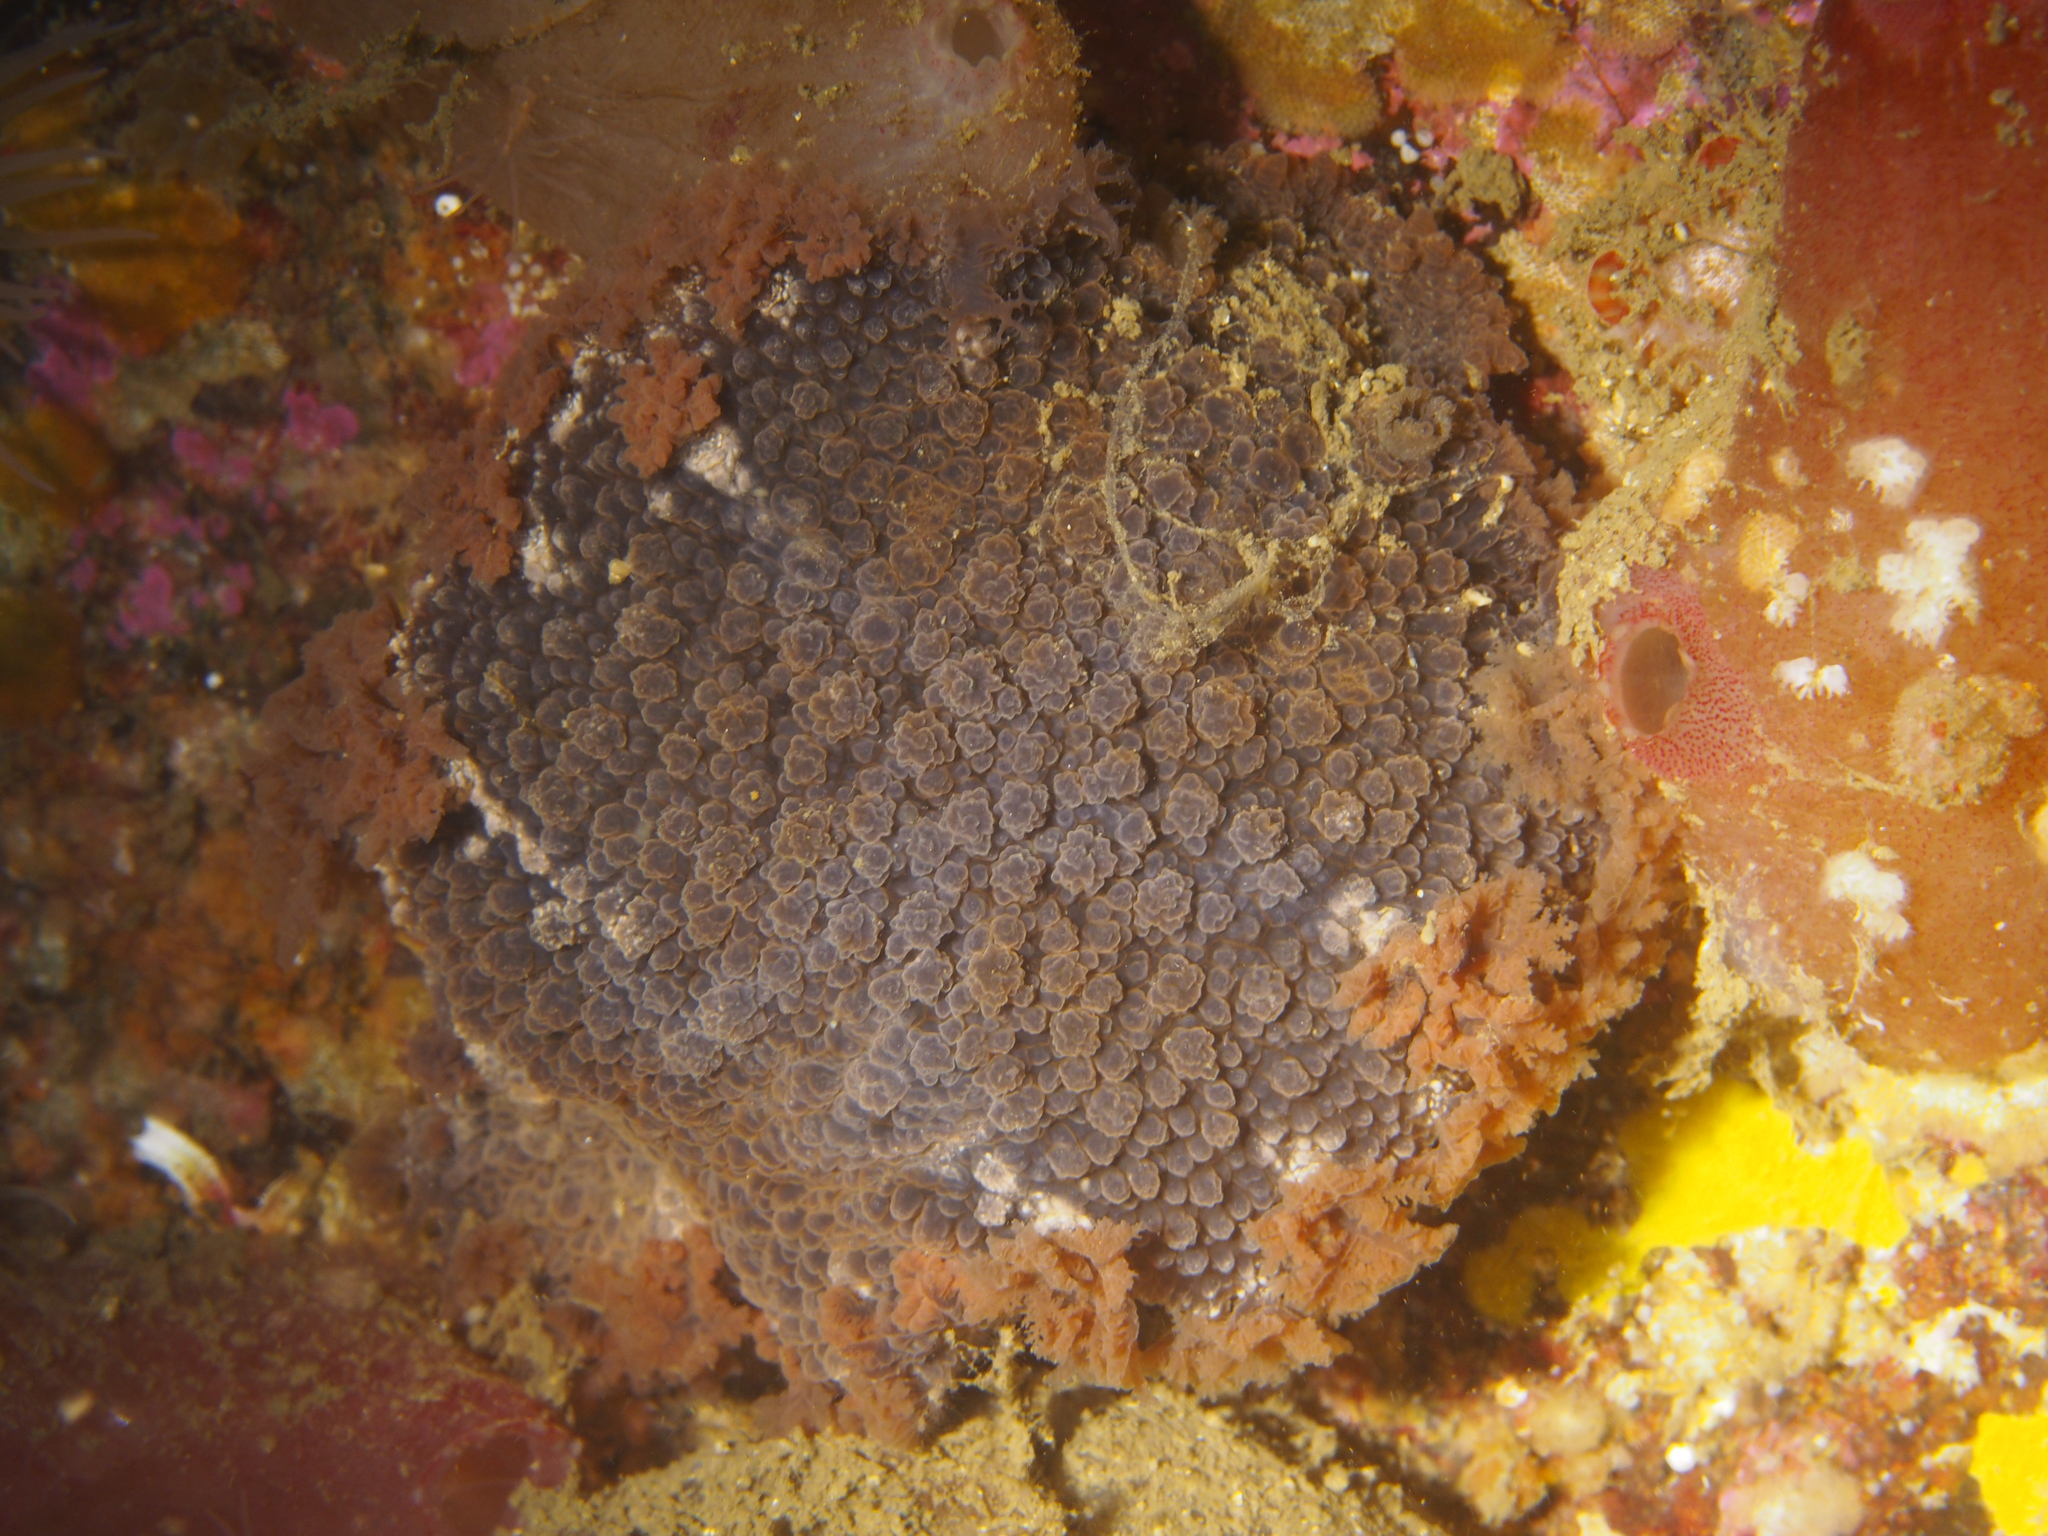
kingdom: Animalia
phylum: Mollusca
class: Gastropoda
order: Nudibranchia
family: Tritoniidae
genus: Tritonia
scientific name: Tritonia hombergii
